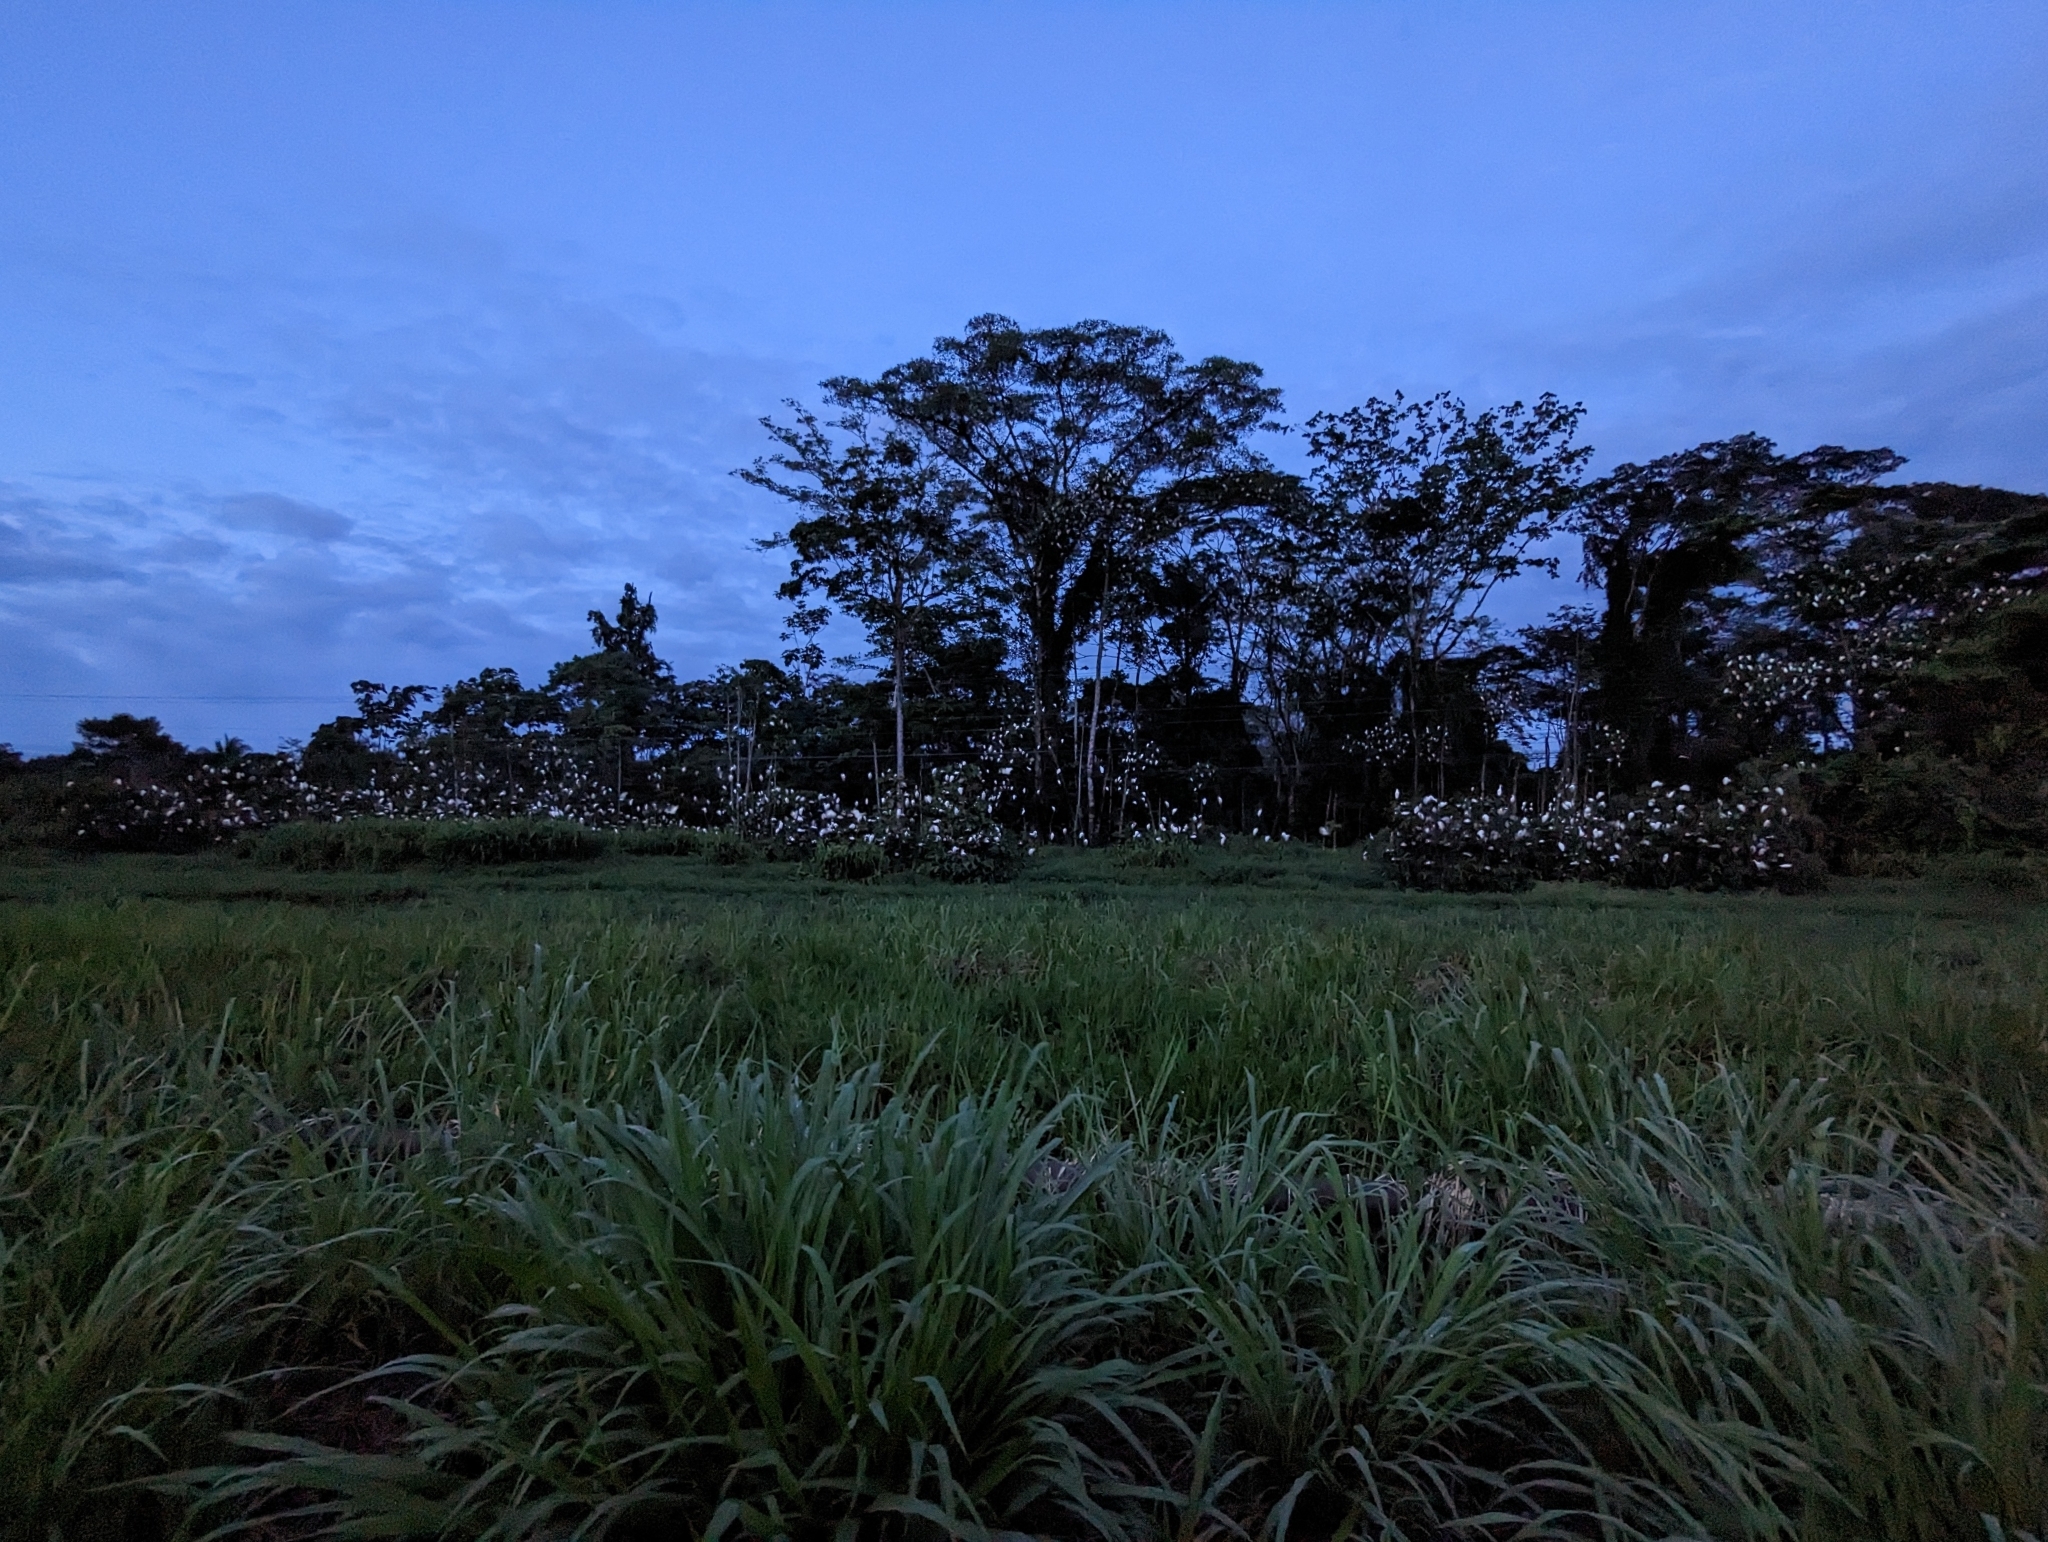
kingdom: Animalia
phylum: Chordata
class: Aves
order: Pelecaniformes
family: Ardeidae
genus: Bubulcus
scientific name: Bubulcus ibis
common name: Cattle egret
